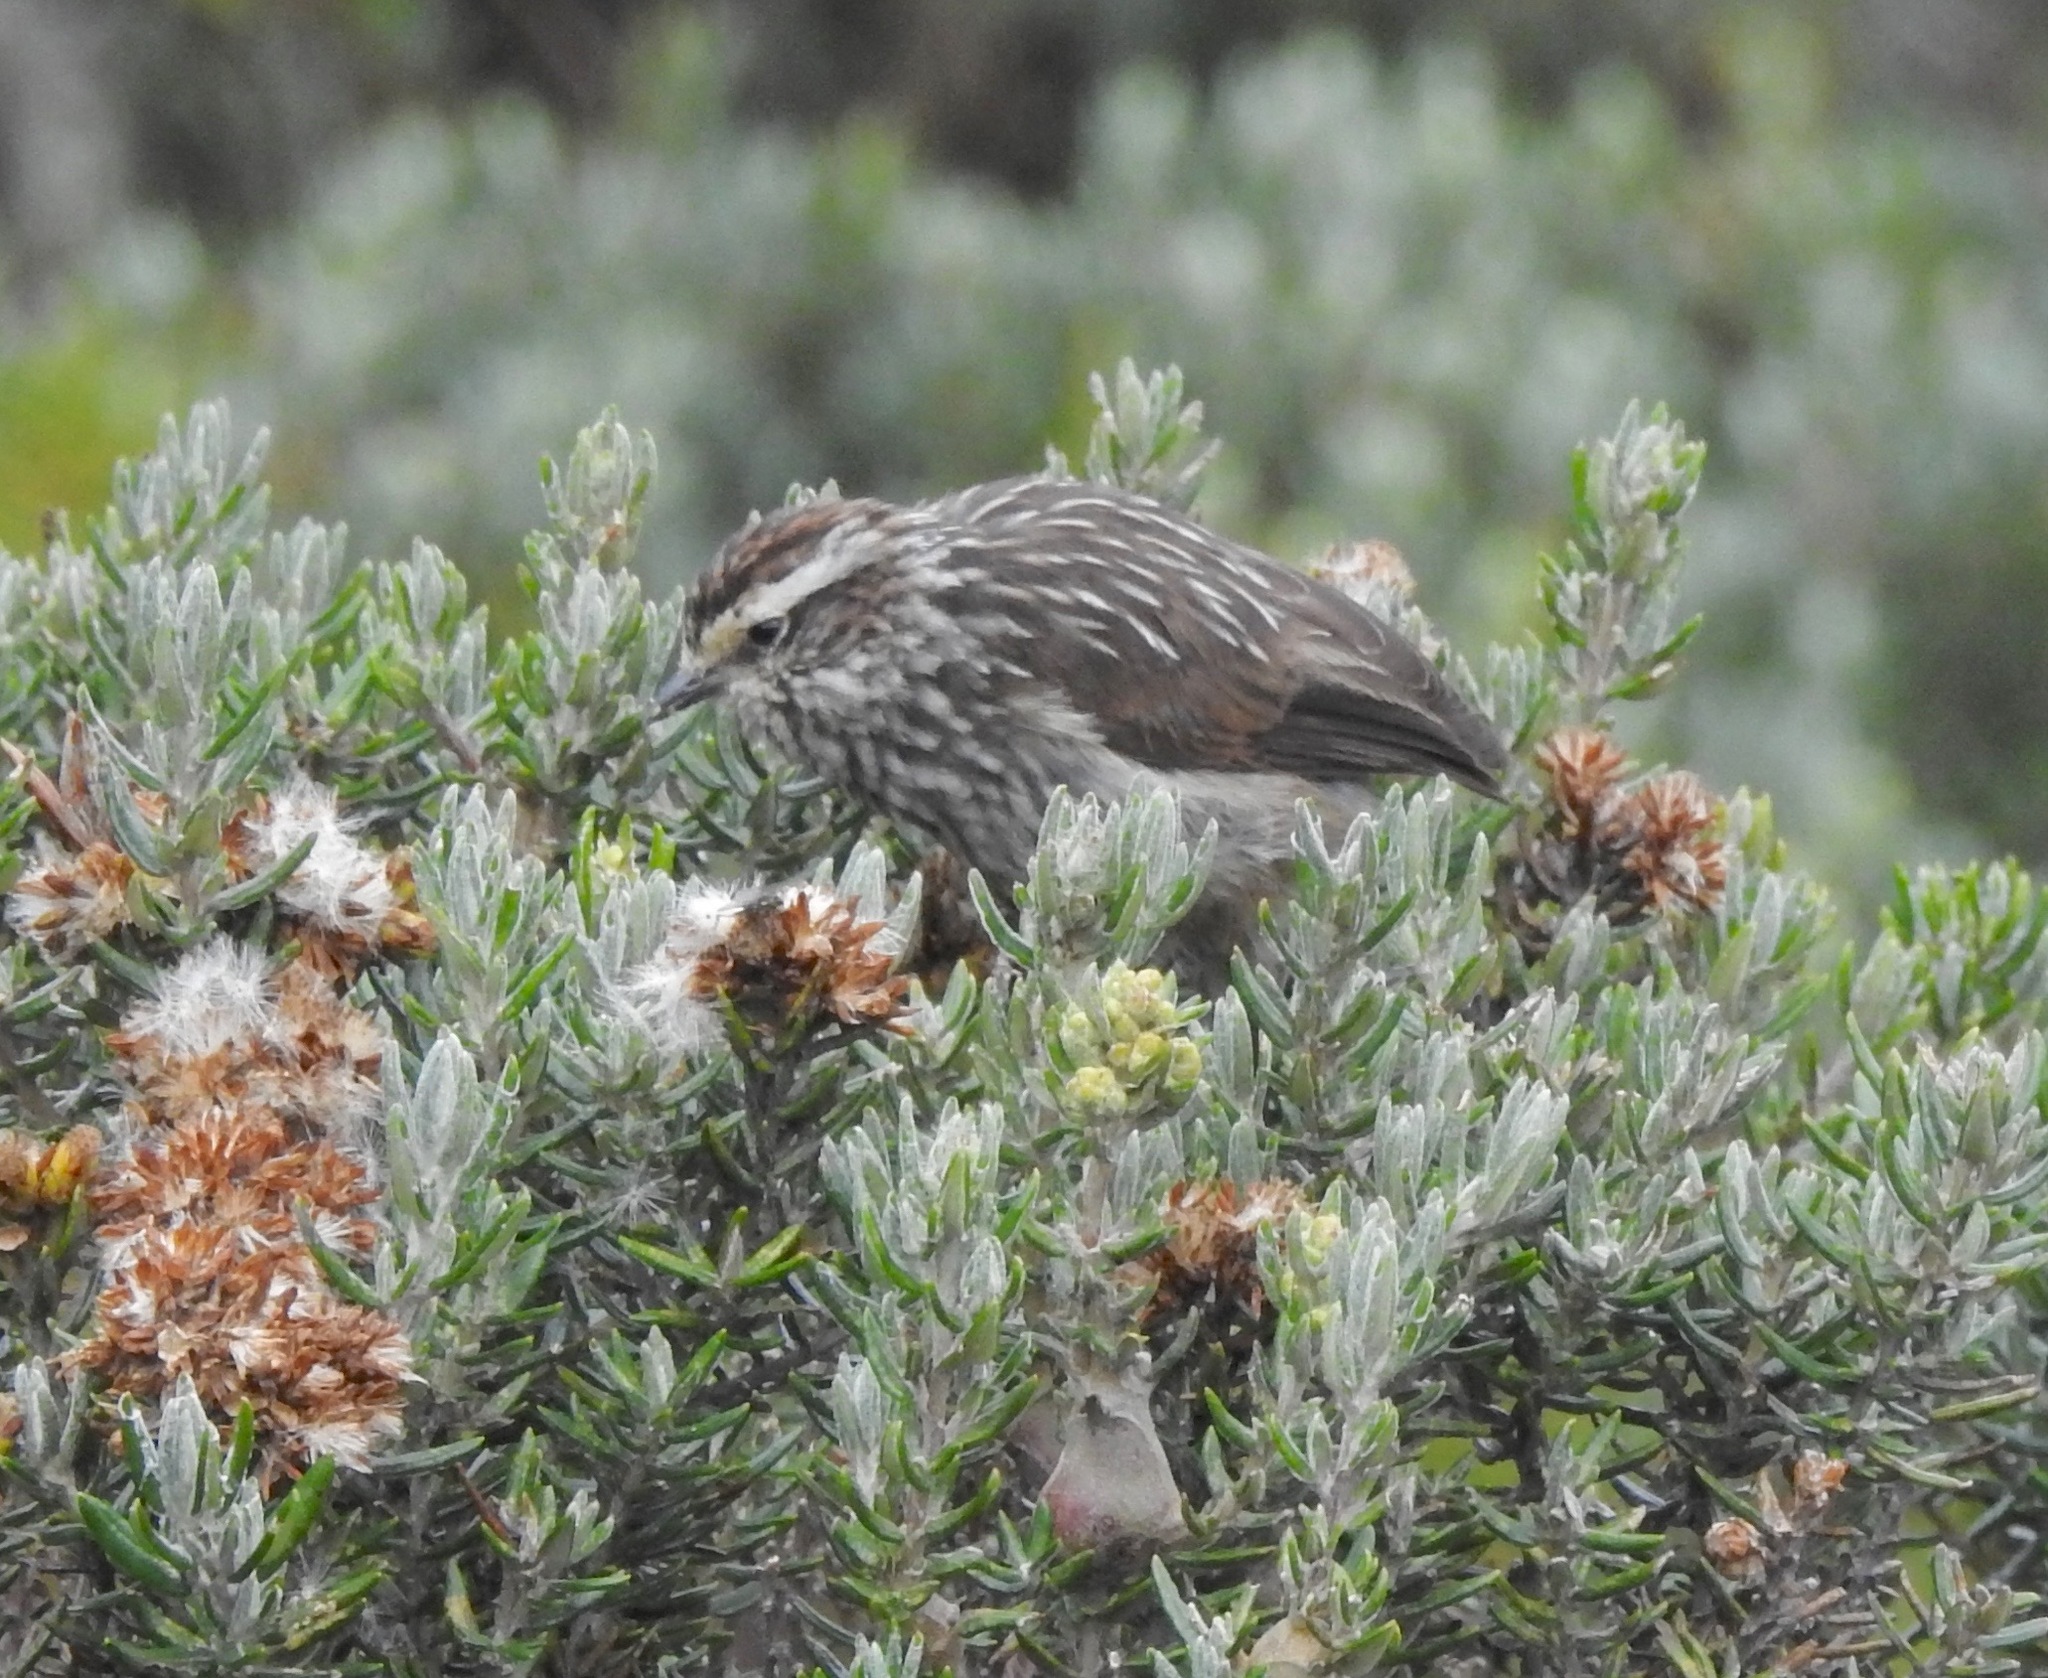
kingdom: Animalia
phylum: Chordata
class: Aves
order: Passeriformes
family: Furnariidae
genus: Leptasthenura
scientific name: Leptasthenura andicola
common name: Andean tit-spinetail
